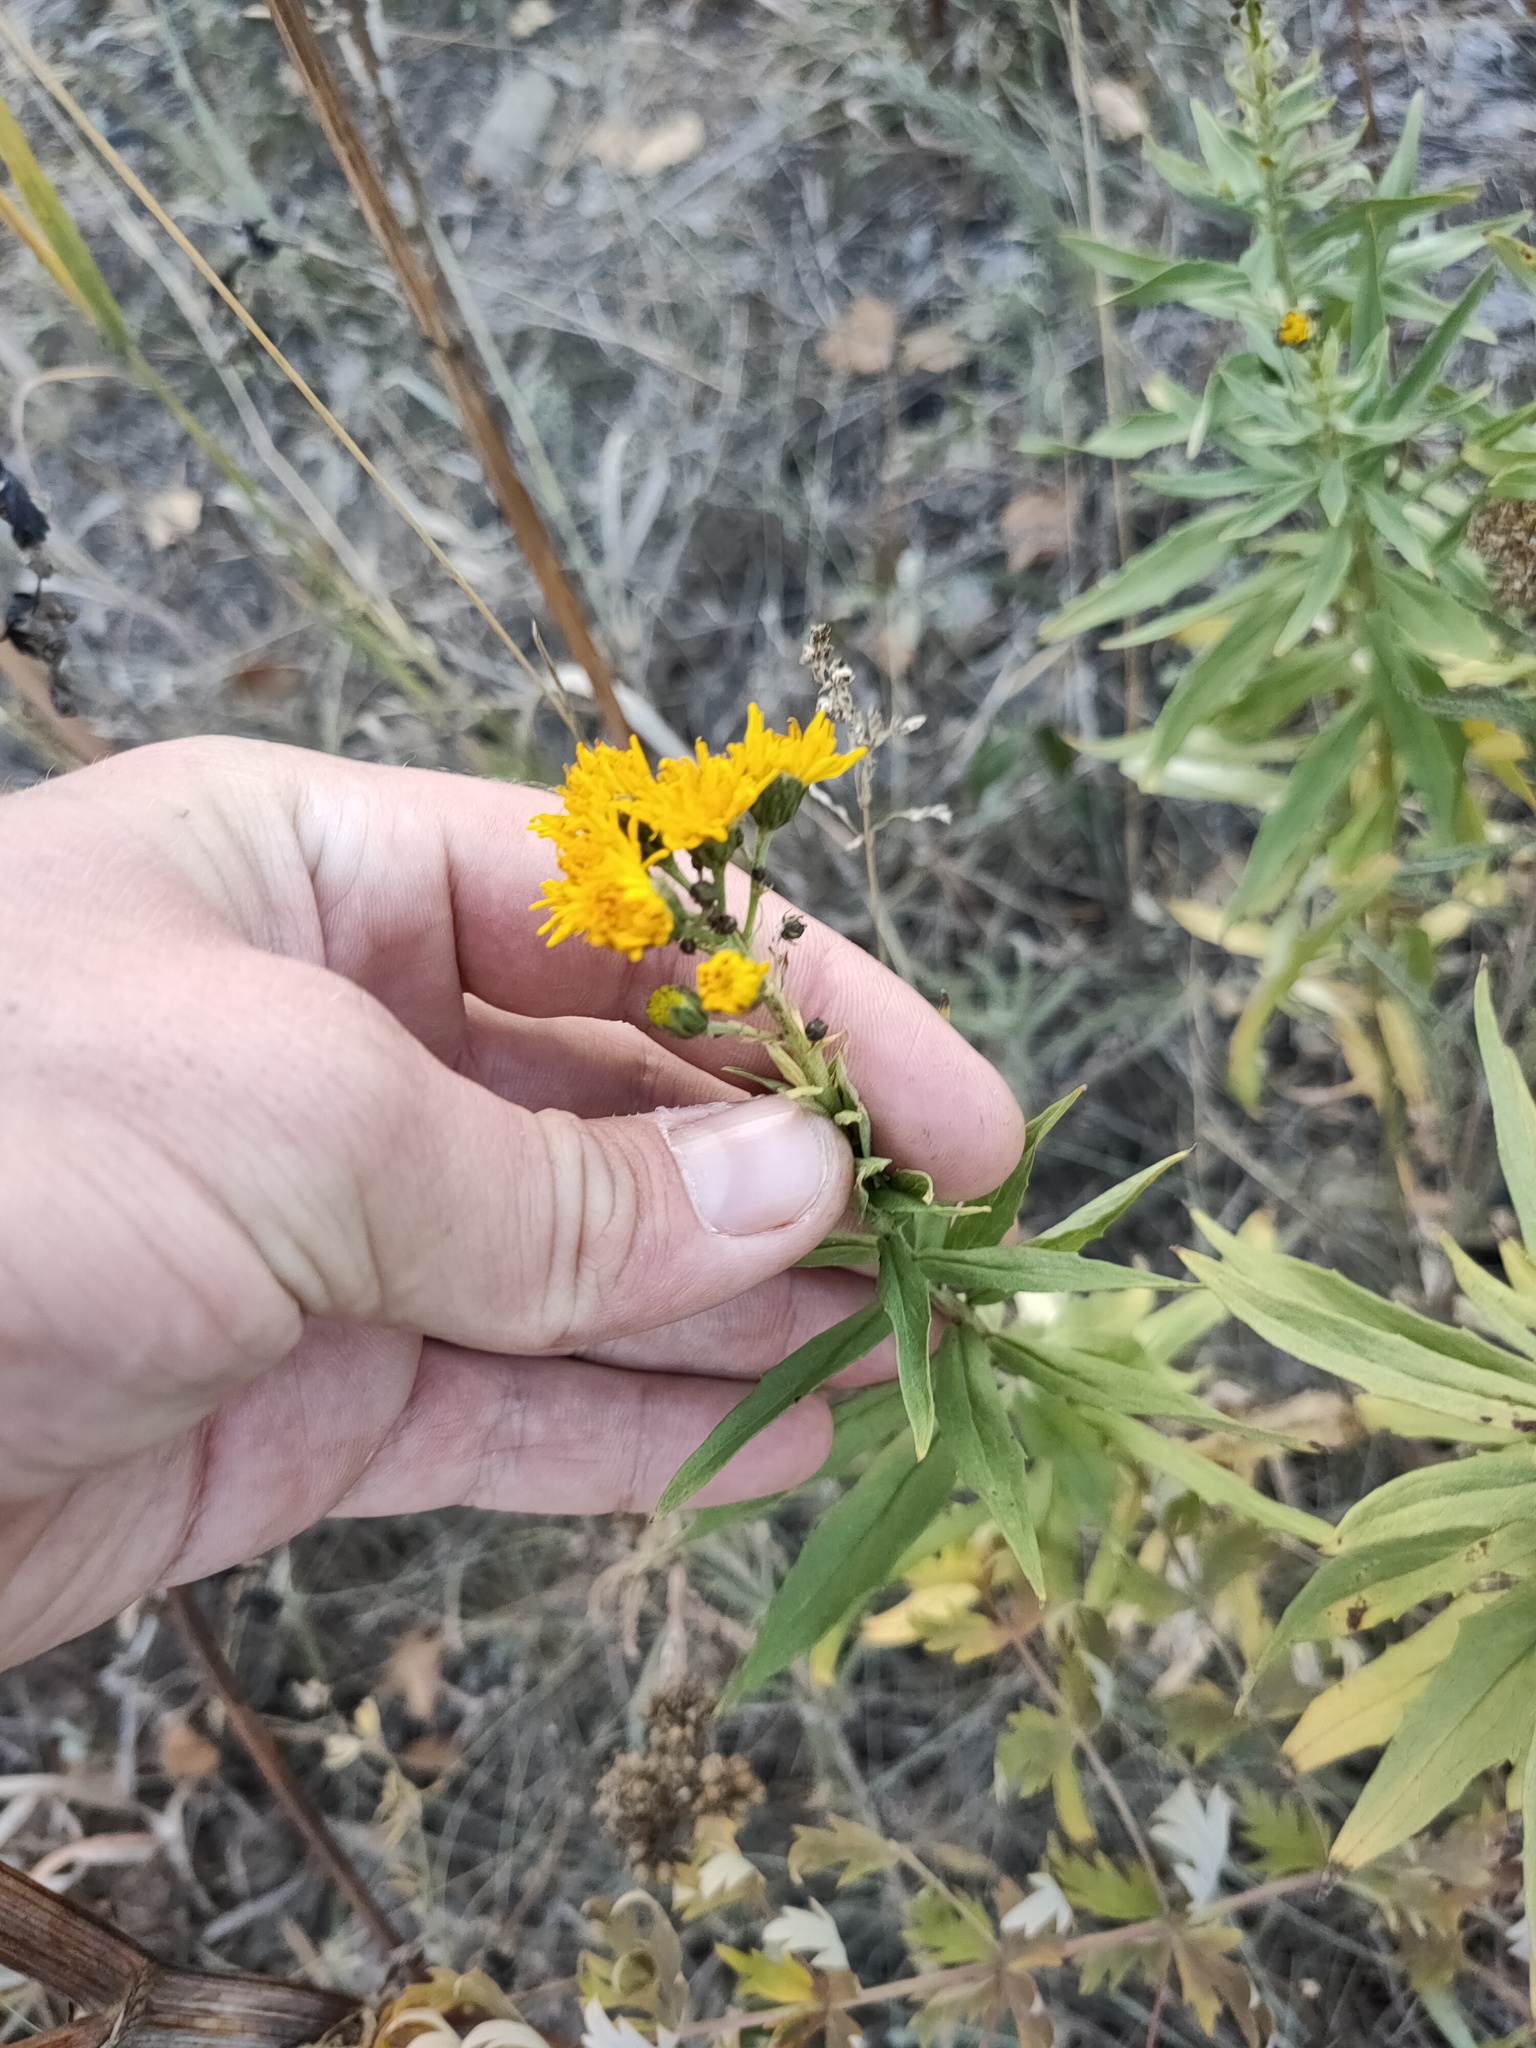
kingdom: Plantae
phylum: Tracheophyta
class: Magnoliopsida
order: Asterales
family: Asteraceae
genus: Hieracium
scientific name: Hieracium umbellatum
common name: Northern hawkweed
